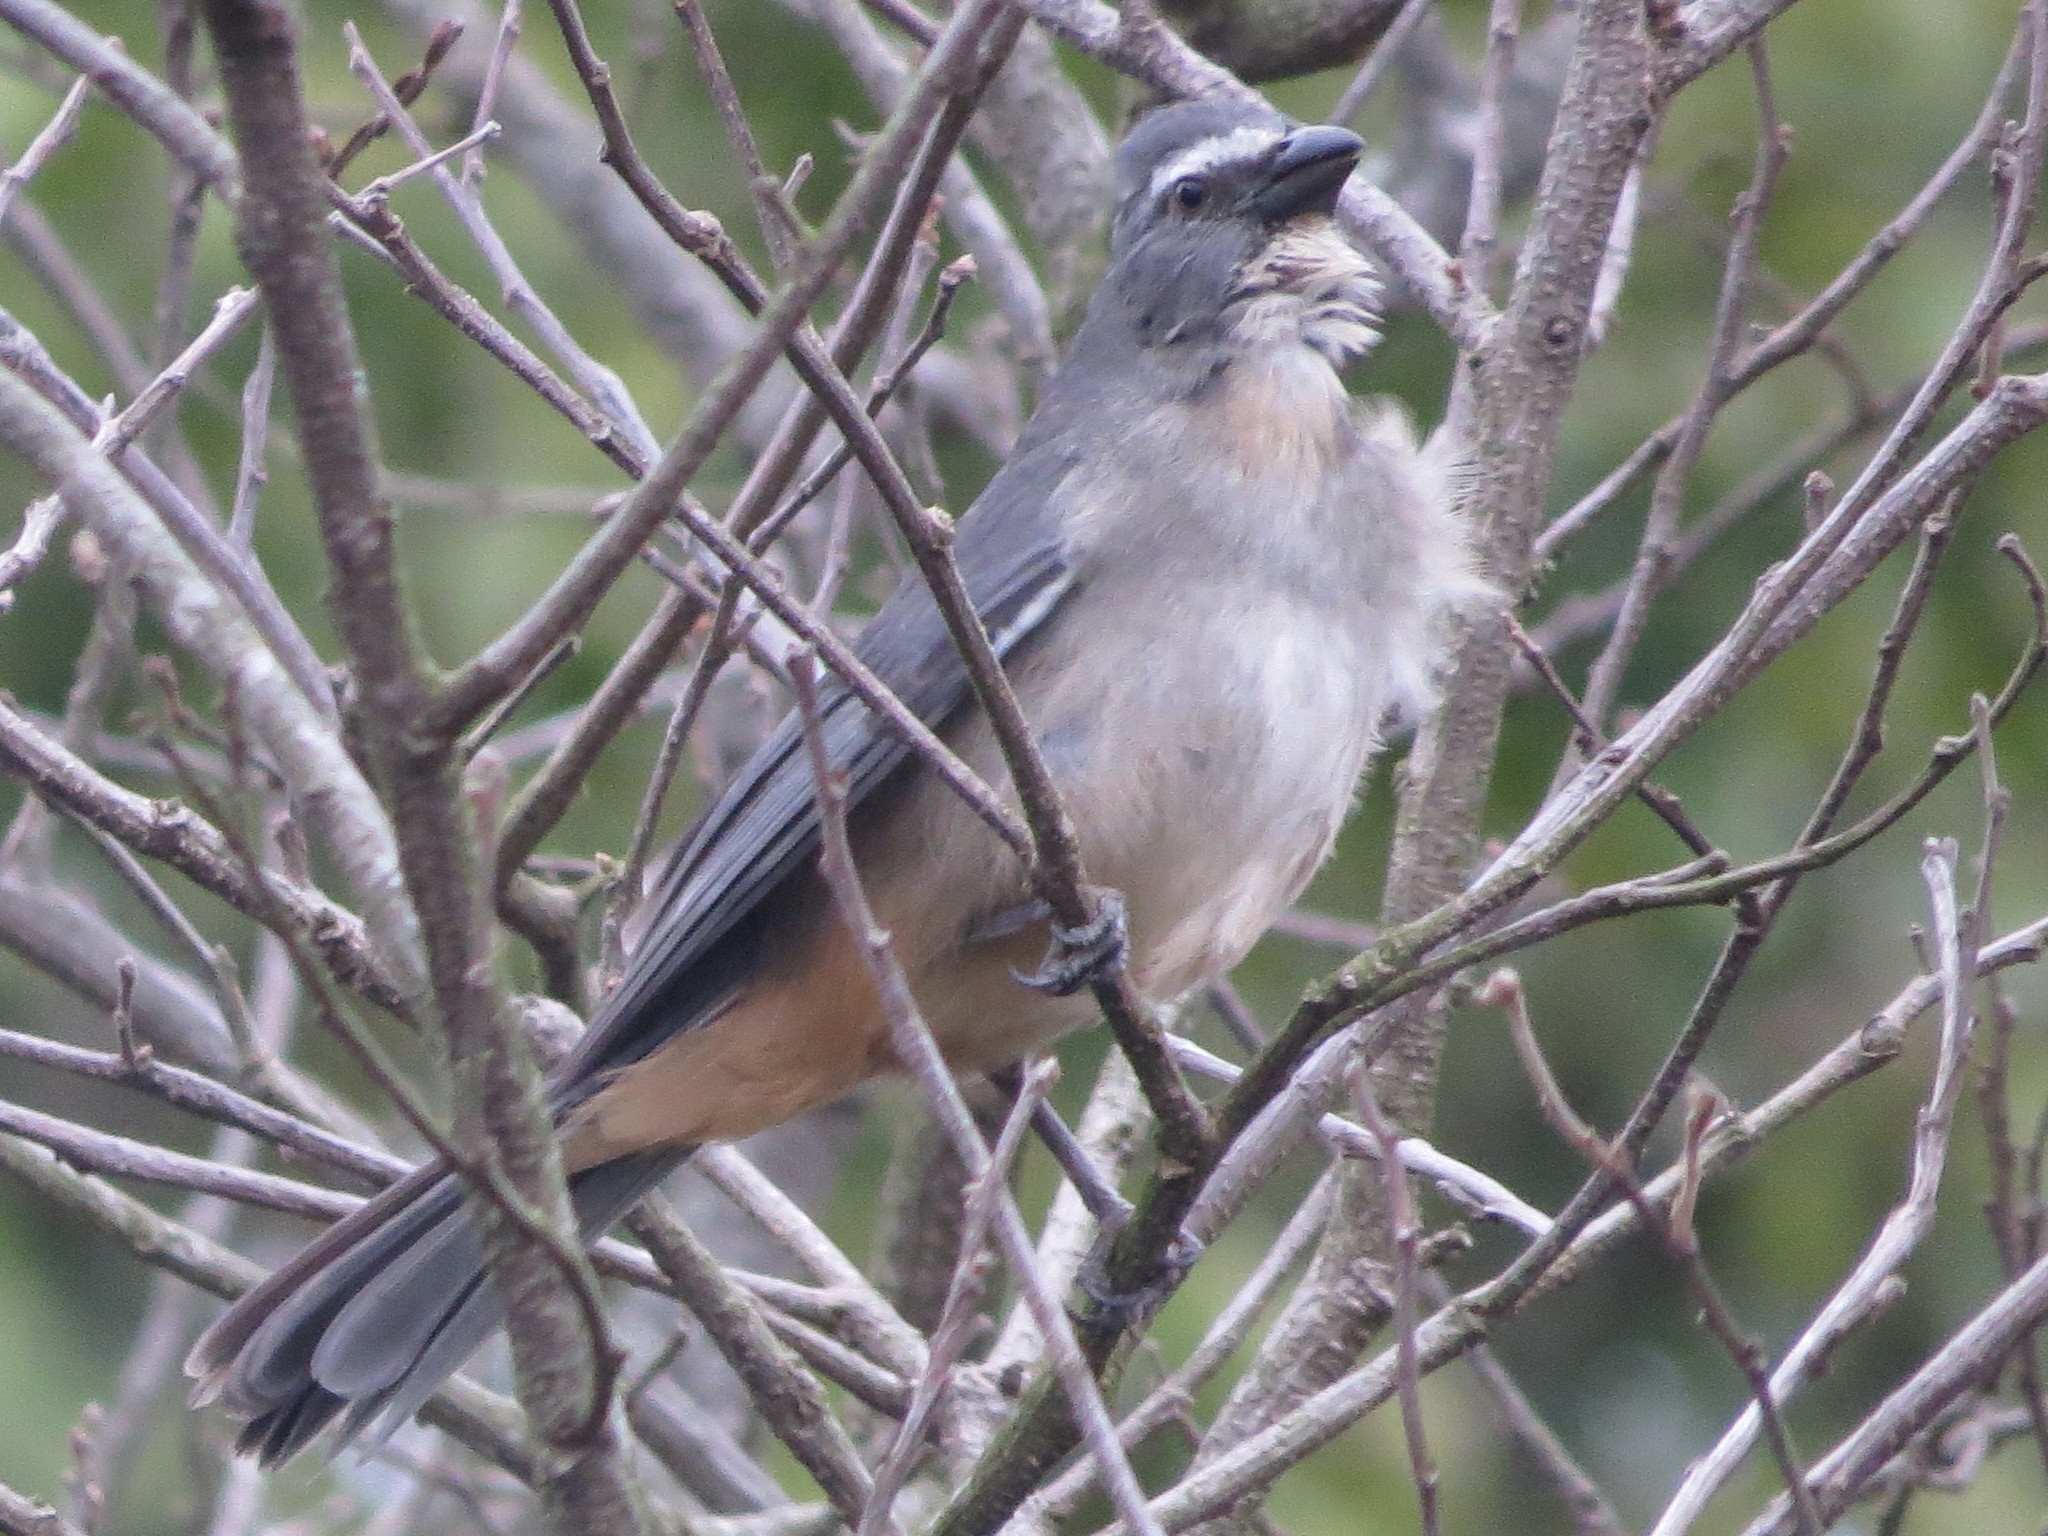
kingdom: Animalia
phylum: Chordata
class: Aves
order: Passeriformes
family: Thraupidae
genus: Saltator
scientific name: Saltator coerulescens
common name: Grayish saltator
